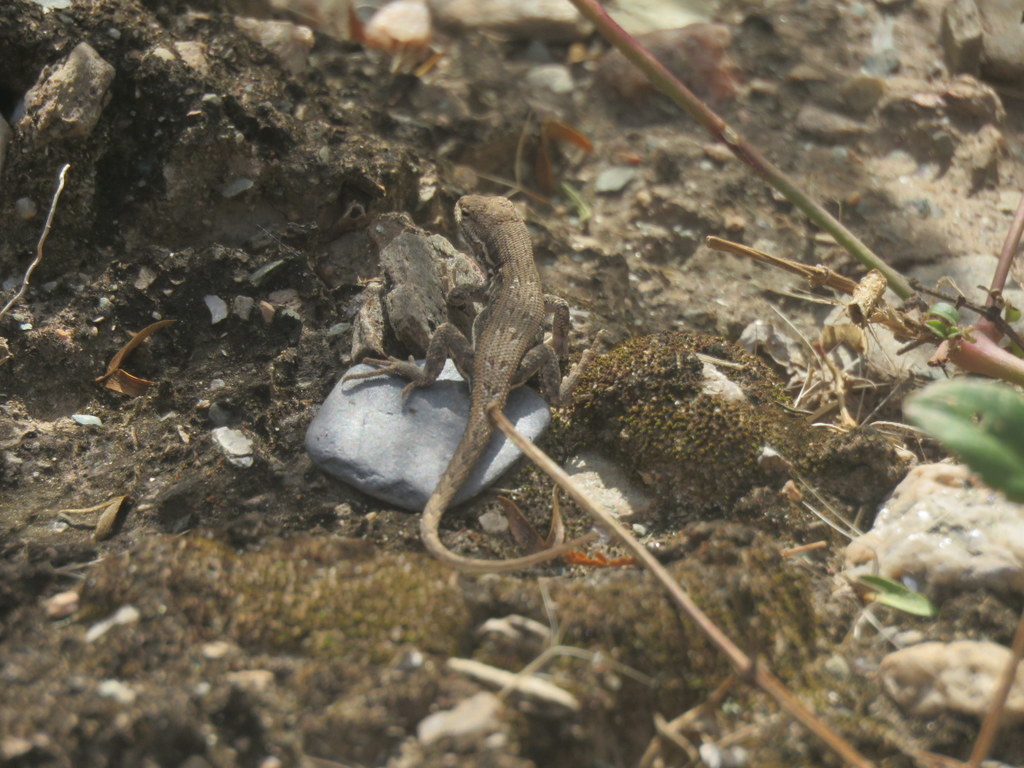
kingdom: Animalia
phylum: Chordata
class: Squamata
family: Liolaemidae
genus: Liolaemus
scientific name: Liolaemus chacoensis
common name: Chaco tree iguana
